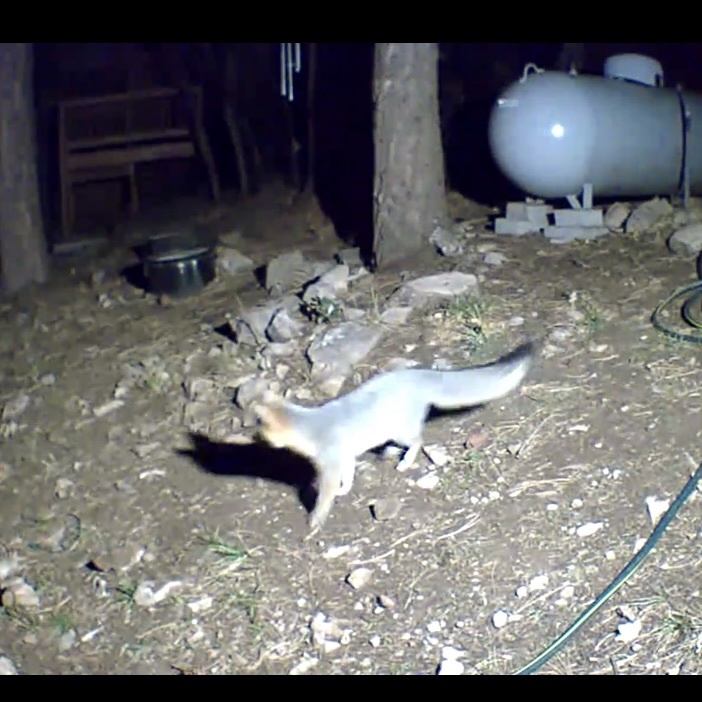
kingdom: Animalia
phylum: Chordata
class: Mammalia
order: Carnivora
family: Canidae
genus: Urocyon
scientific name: Urocyon cinereoargenteus
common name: Gray fox
